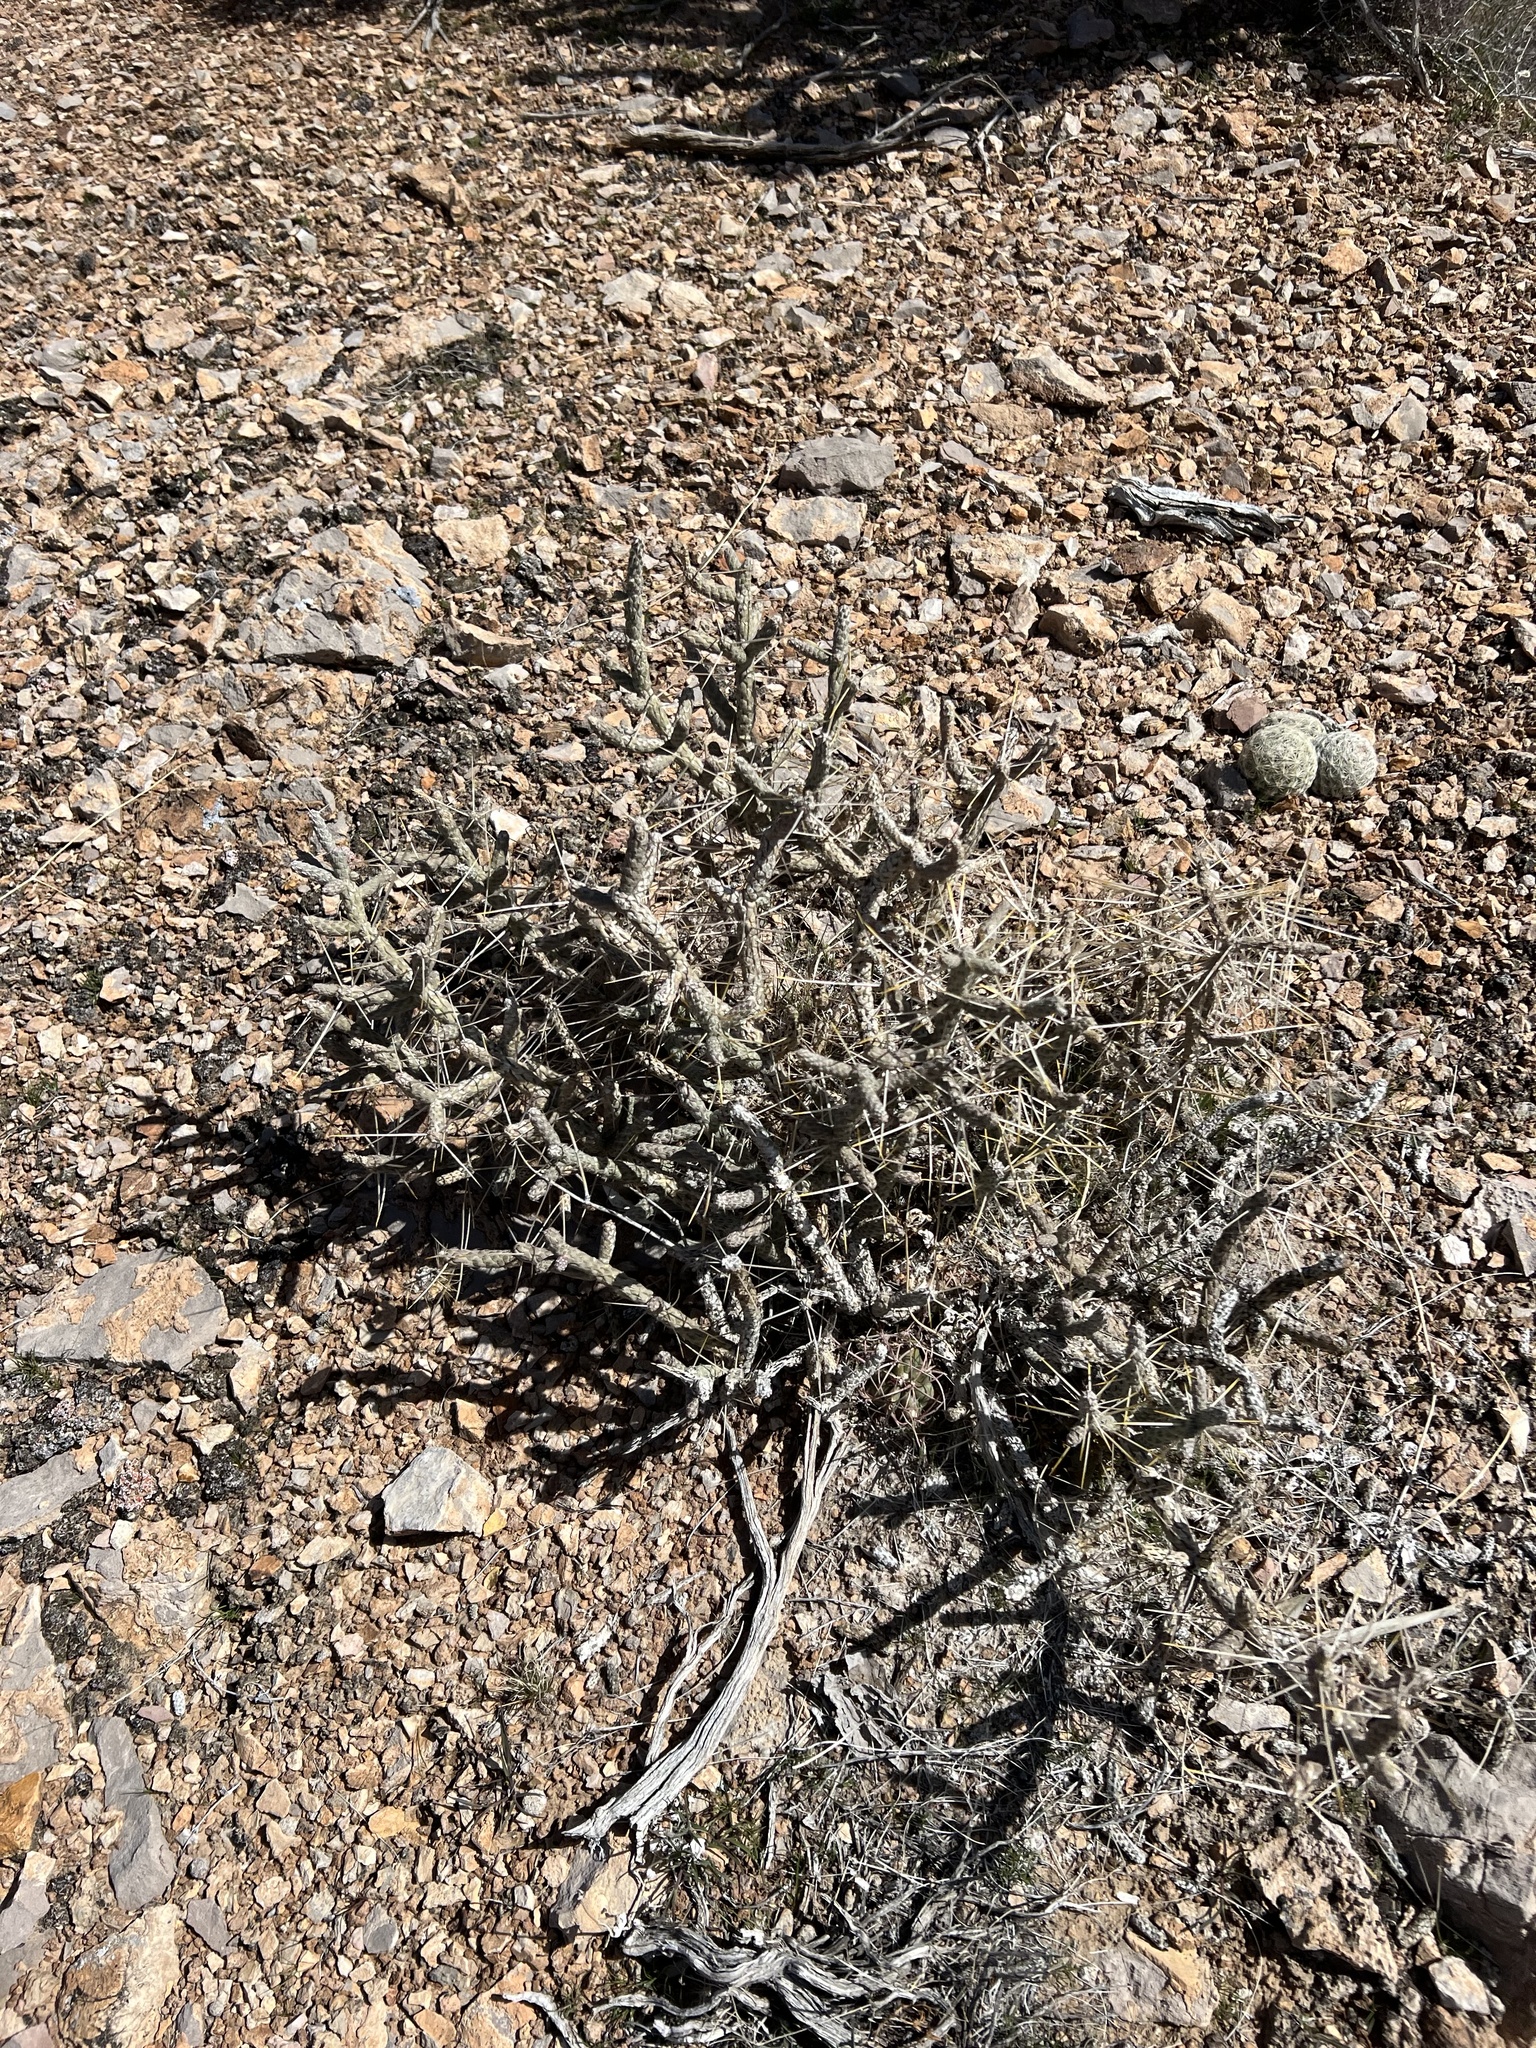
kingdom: Plantae
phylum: Tracheophyta
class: Magnoliopsida
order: Caryophyllales
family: Cactaceae
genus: Cylindropuntia
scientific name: Cylindropuntia ramosissima
